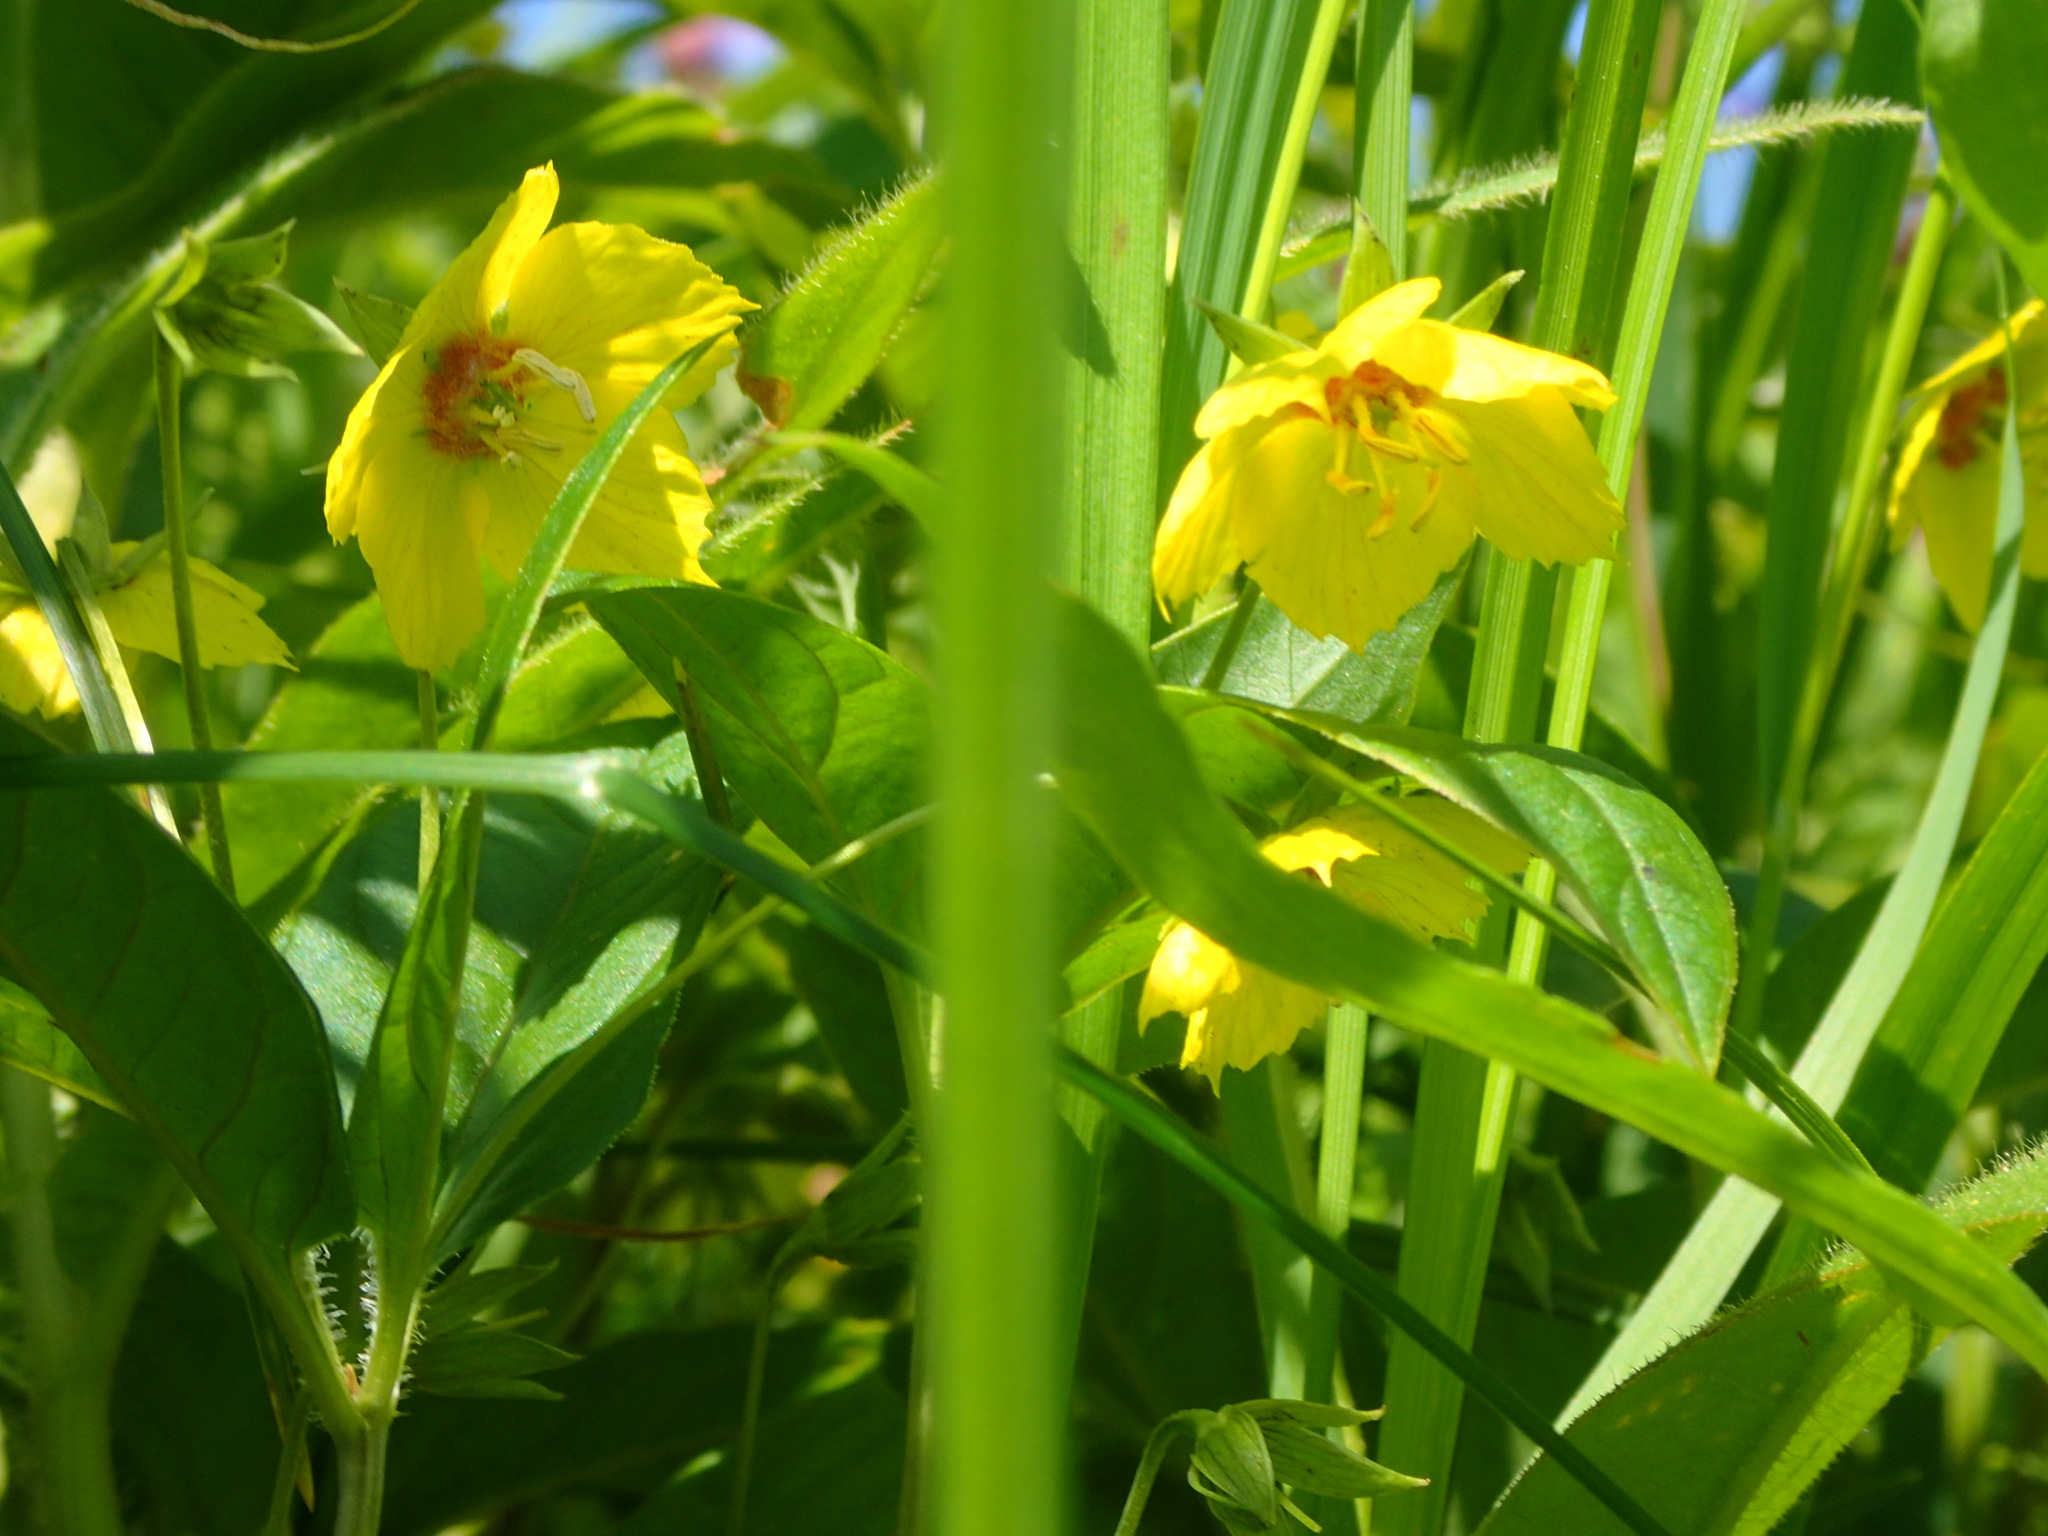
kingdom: Plantae
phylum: Tracheophyta
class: Magnoliopsida
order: Ericales
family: Primulaceae
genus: Lysimachia
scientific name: Lysimachia ciliata
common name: Fringed loosestrife
